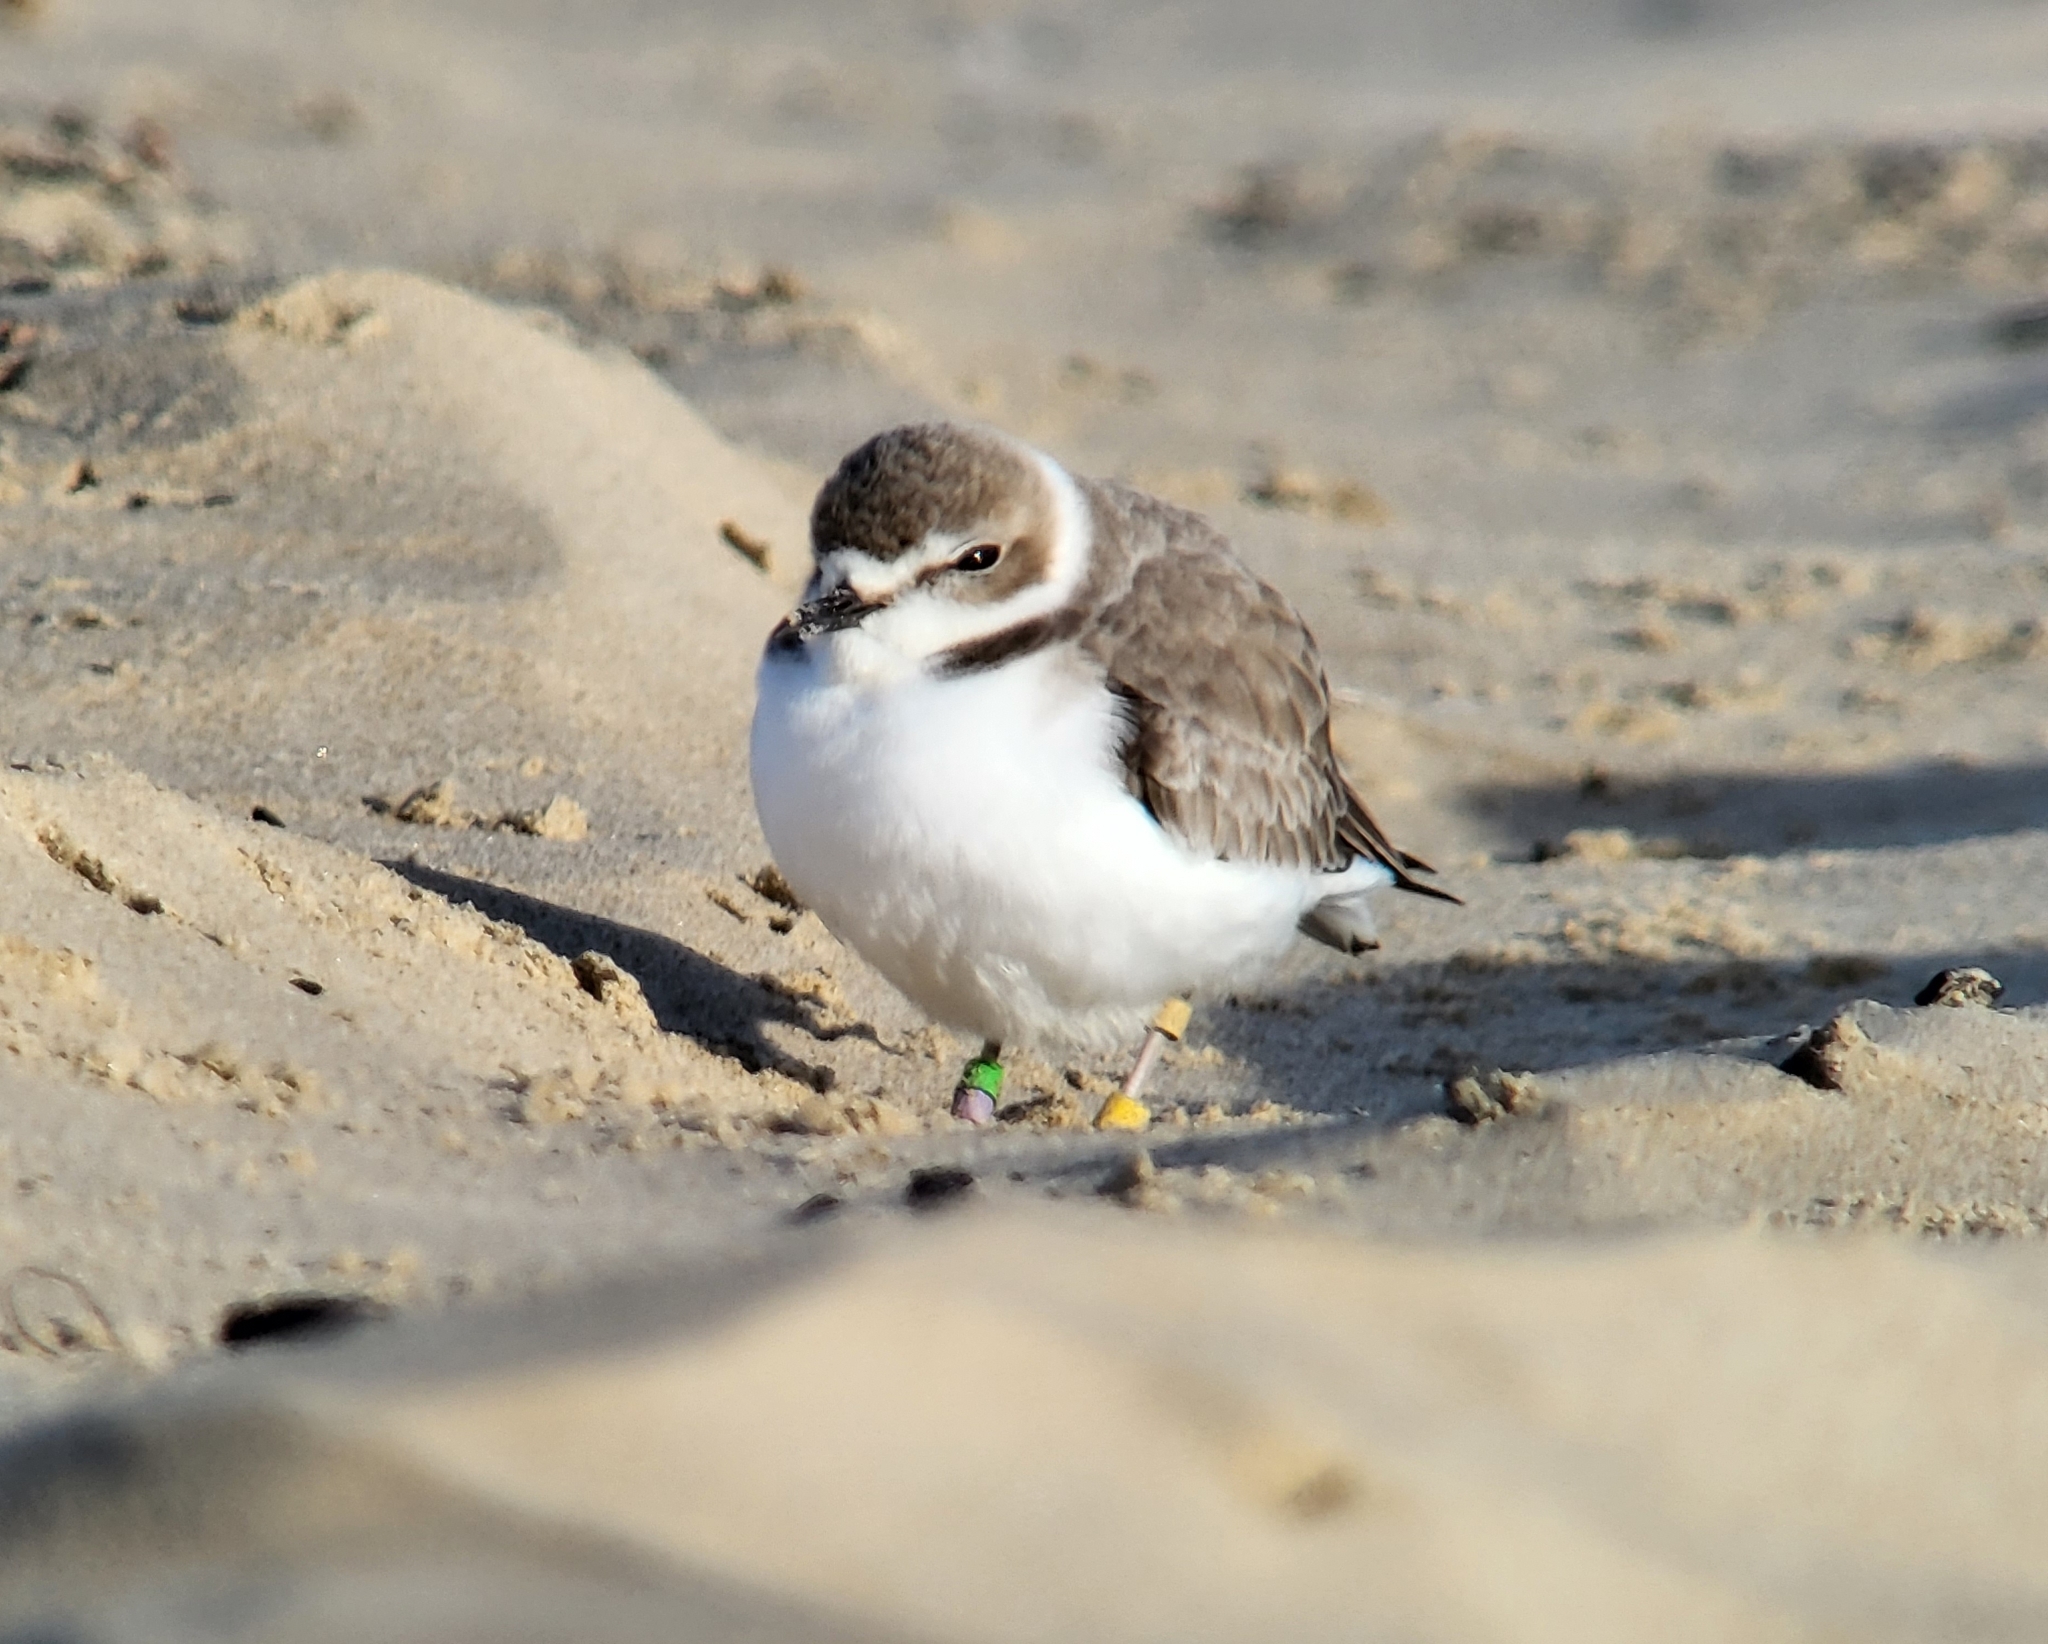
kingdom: Animalia
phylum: Chordata
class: Aves
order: Charadriiformes
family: Charadriidae
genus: Anarhynchus
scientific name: Anarhynchus
